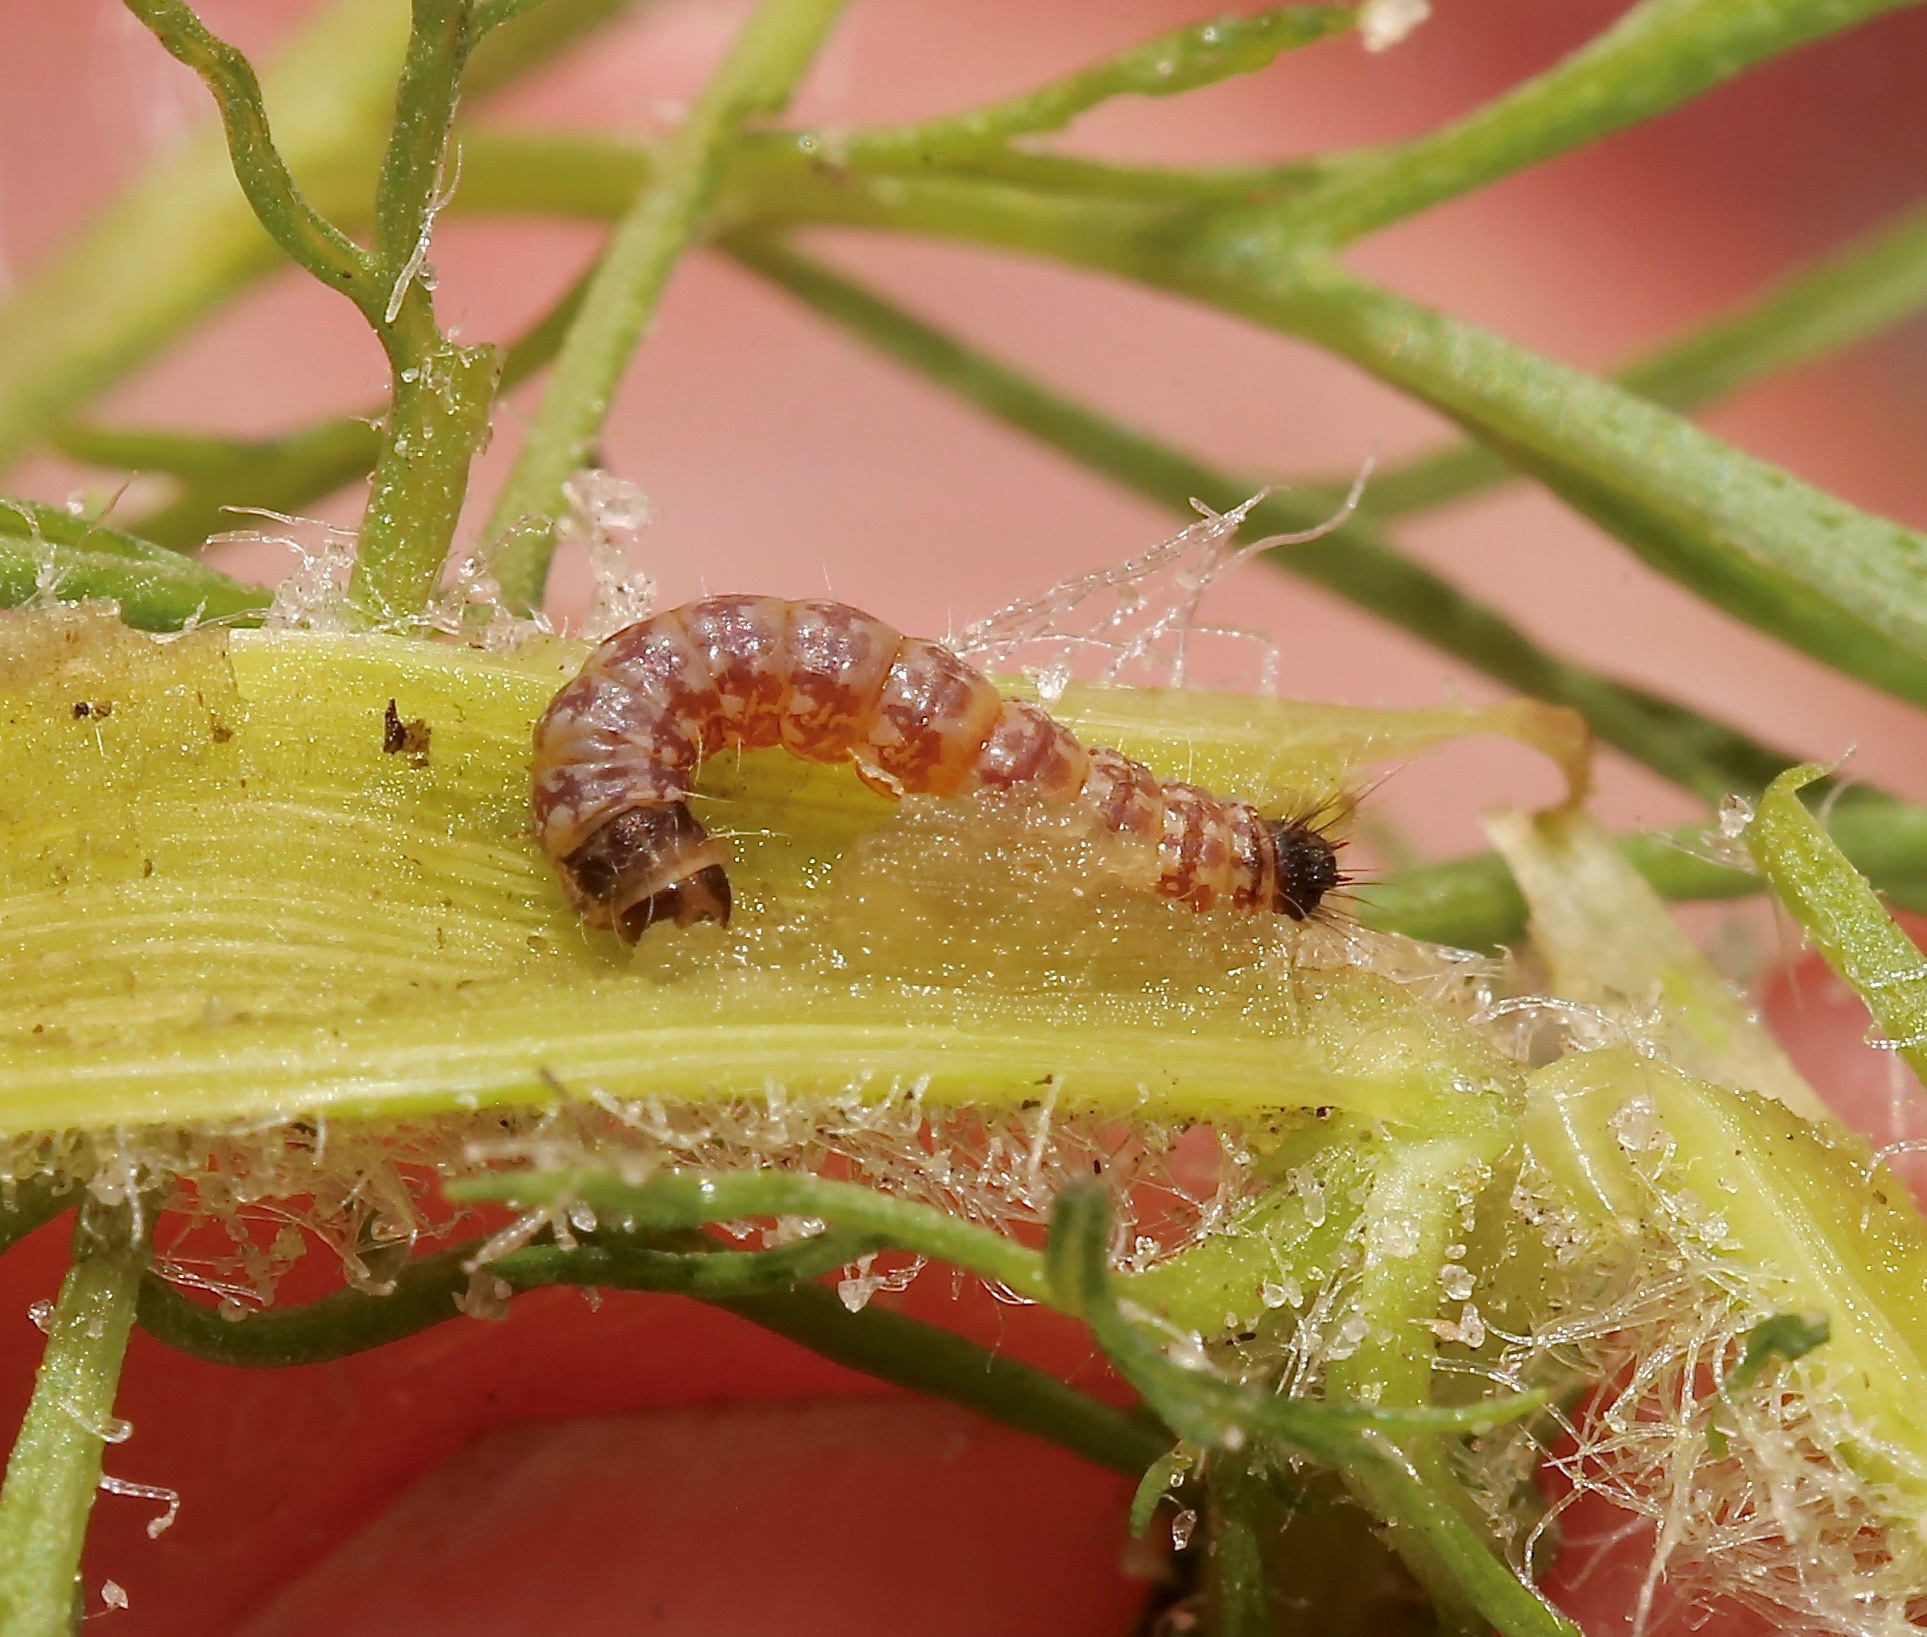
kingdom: Animalia
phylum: Arthropoda
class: Insecta
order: Lepidoptera
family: Pterophoridae
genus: Hellinsia
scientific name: Hellinsia unicolor
